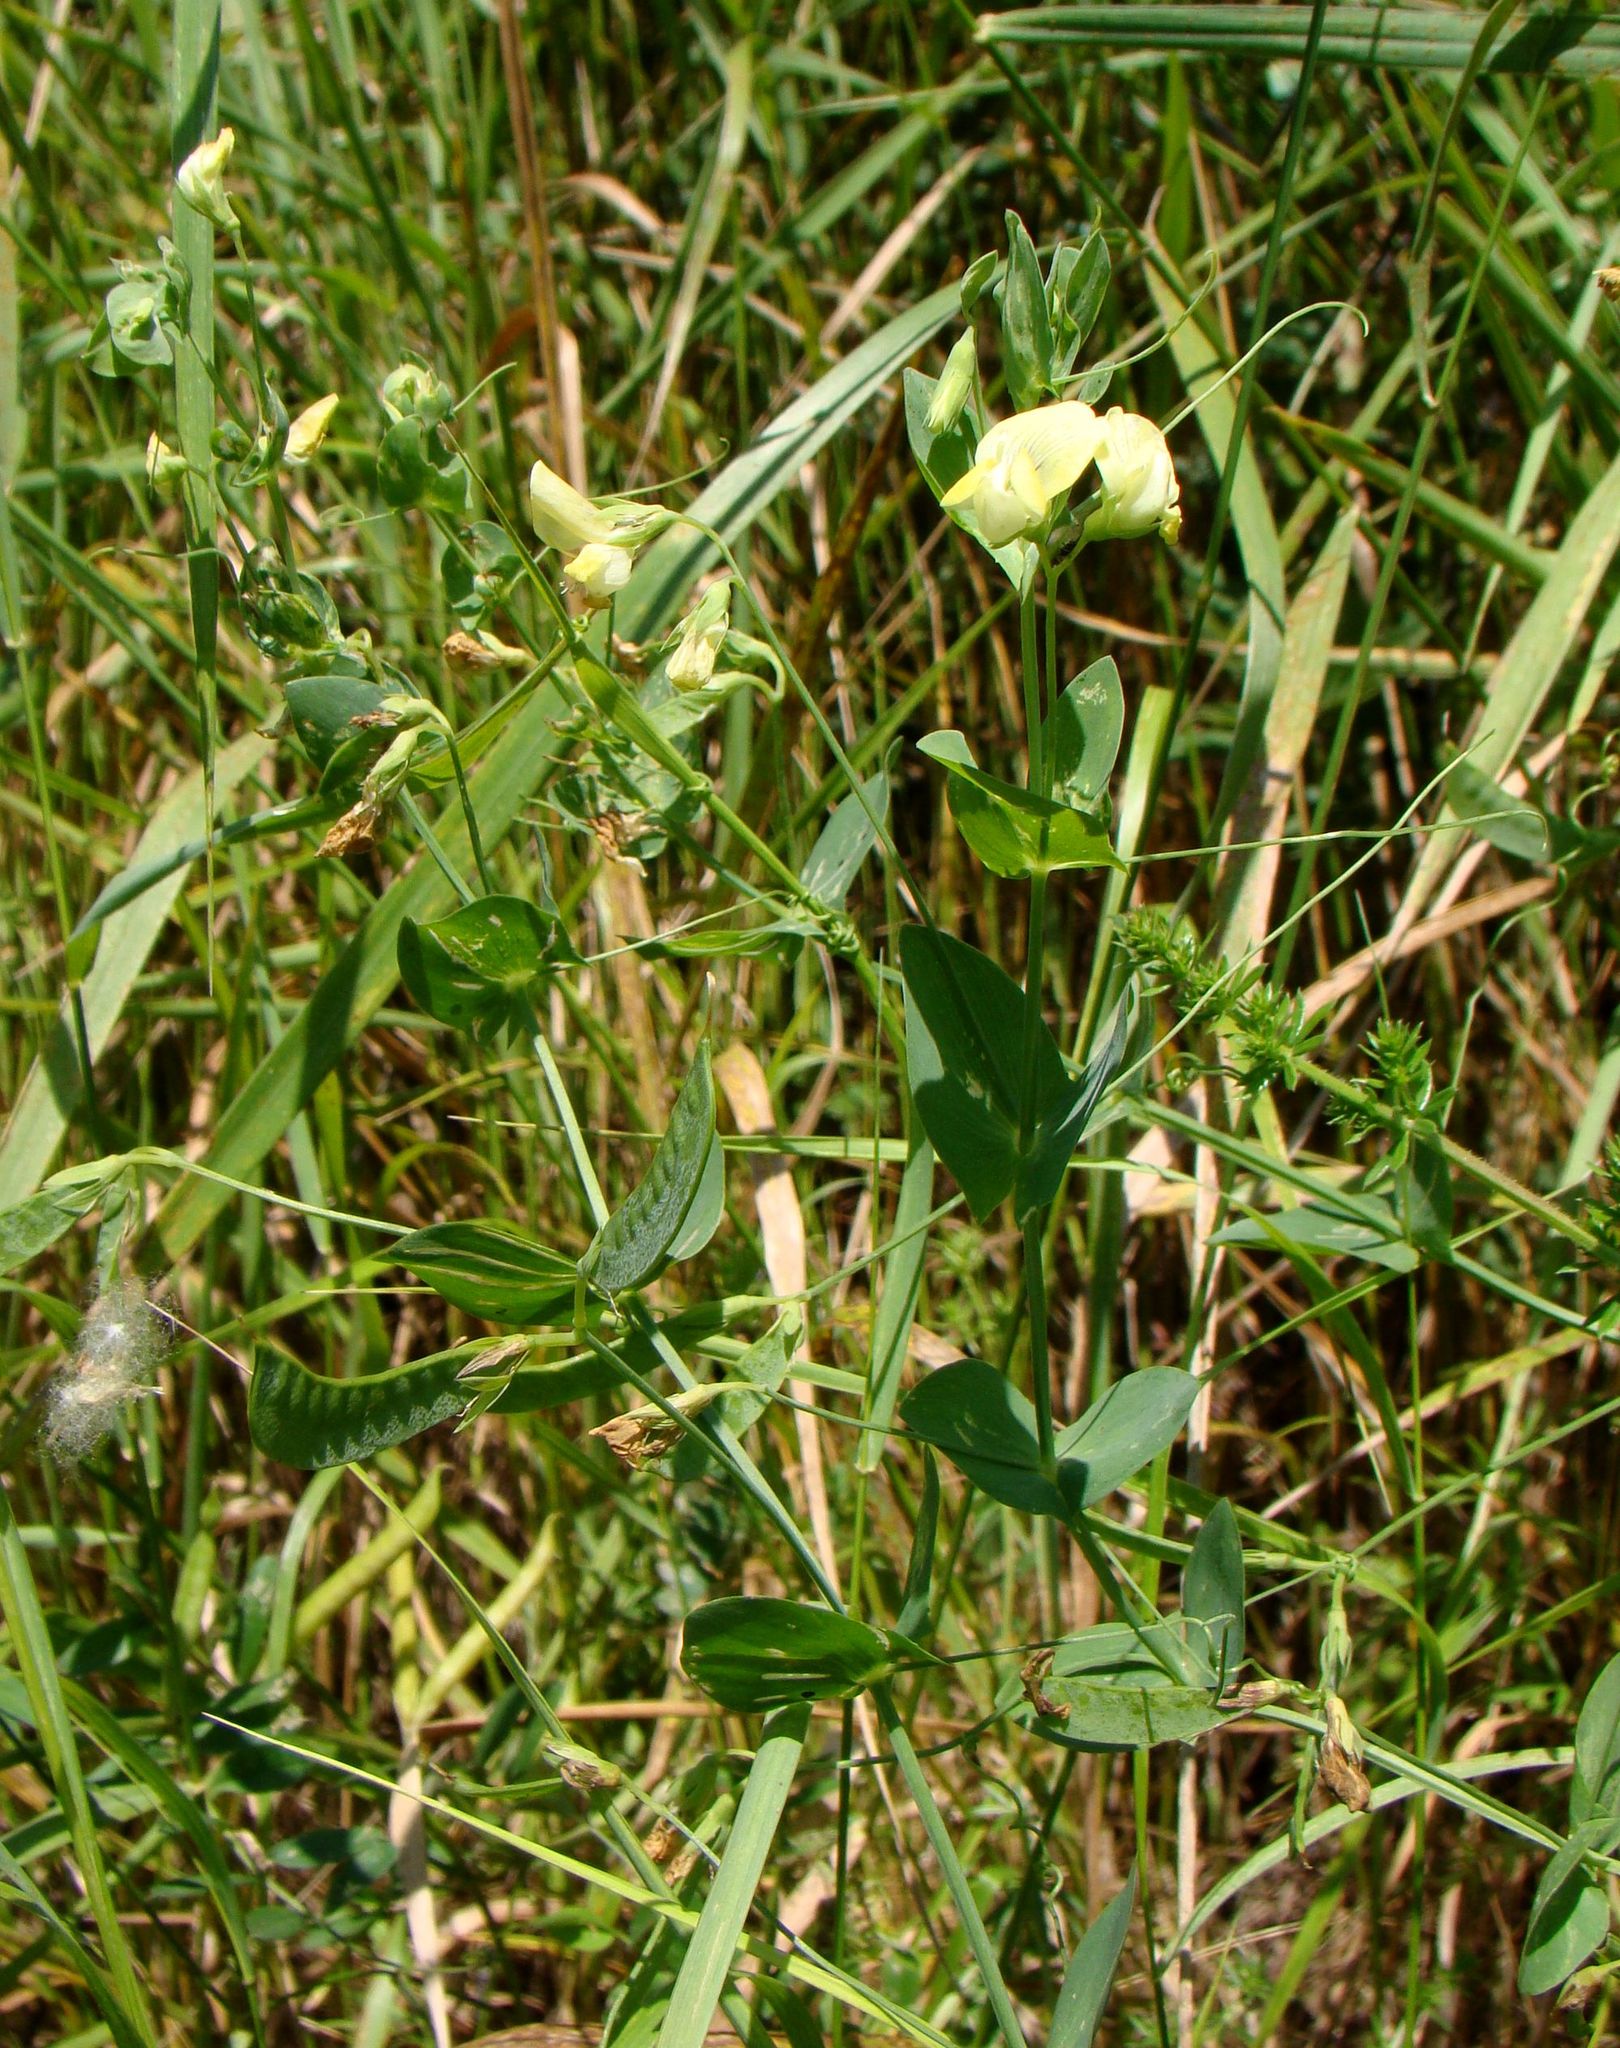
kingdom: Plantae
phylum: Tracheophyta
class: Magnoliopsida
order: Fabales
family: Fabaceae
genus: Lathyrus
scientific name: Lathyrus aphaca
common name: Yellow vetchling
